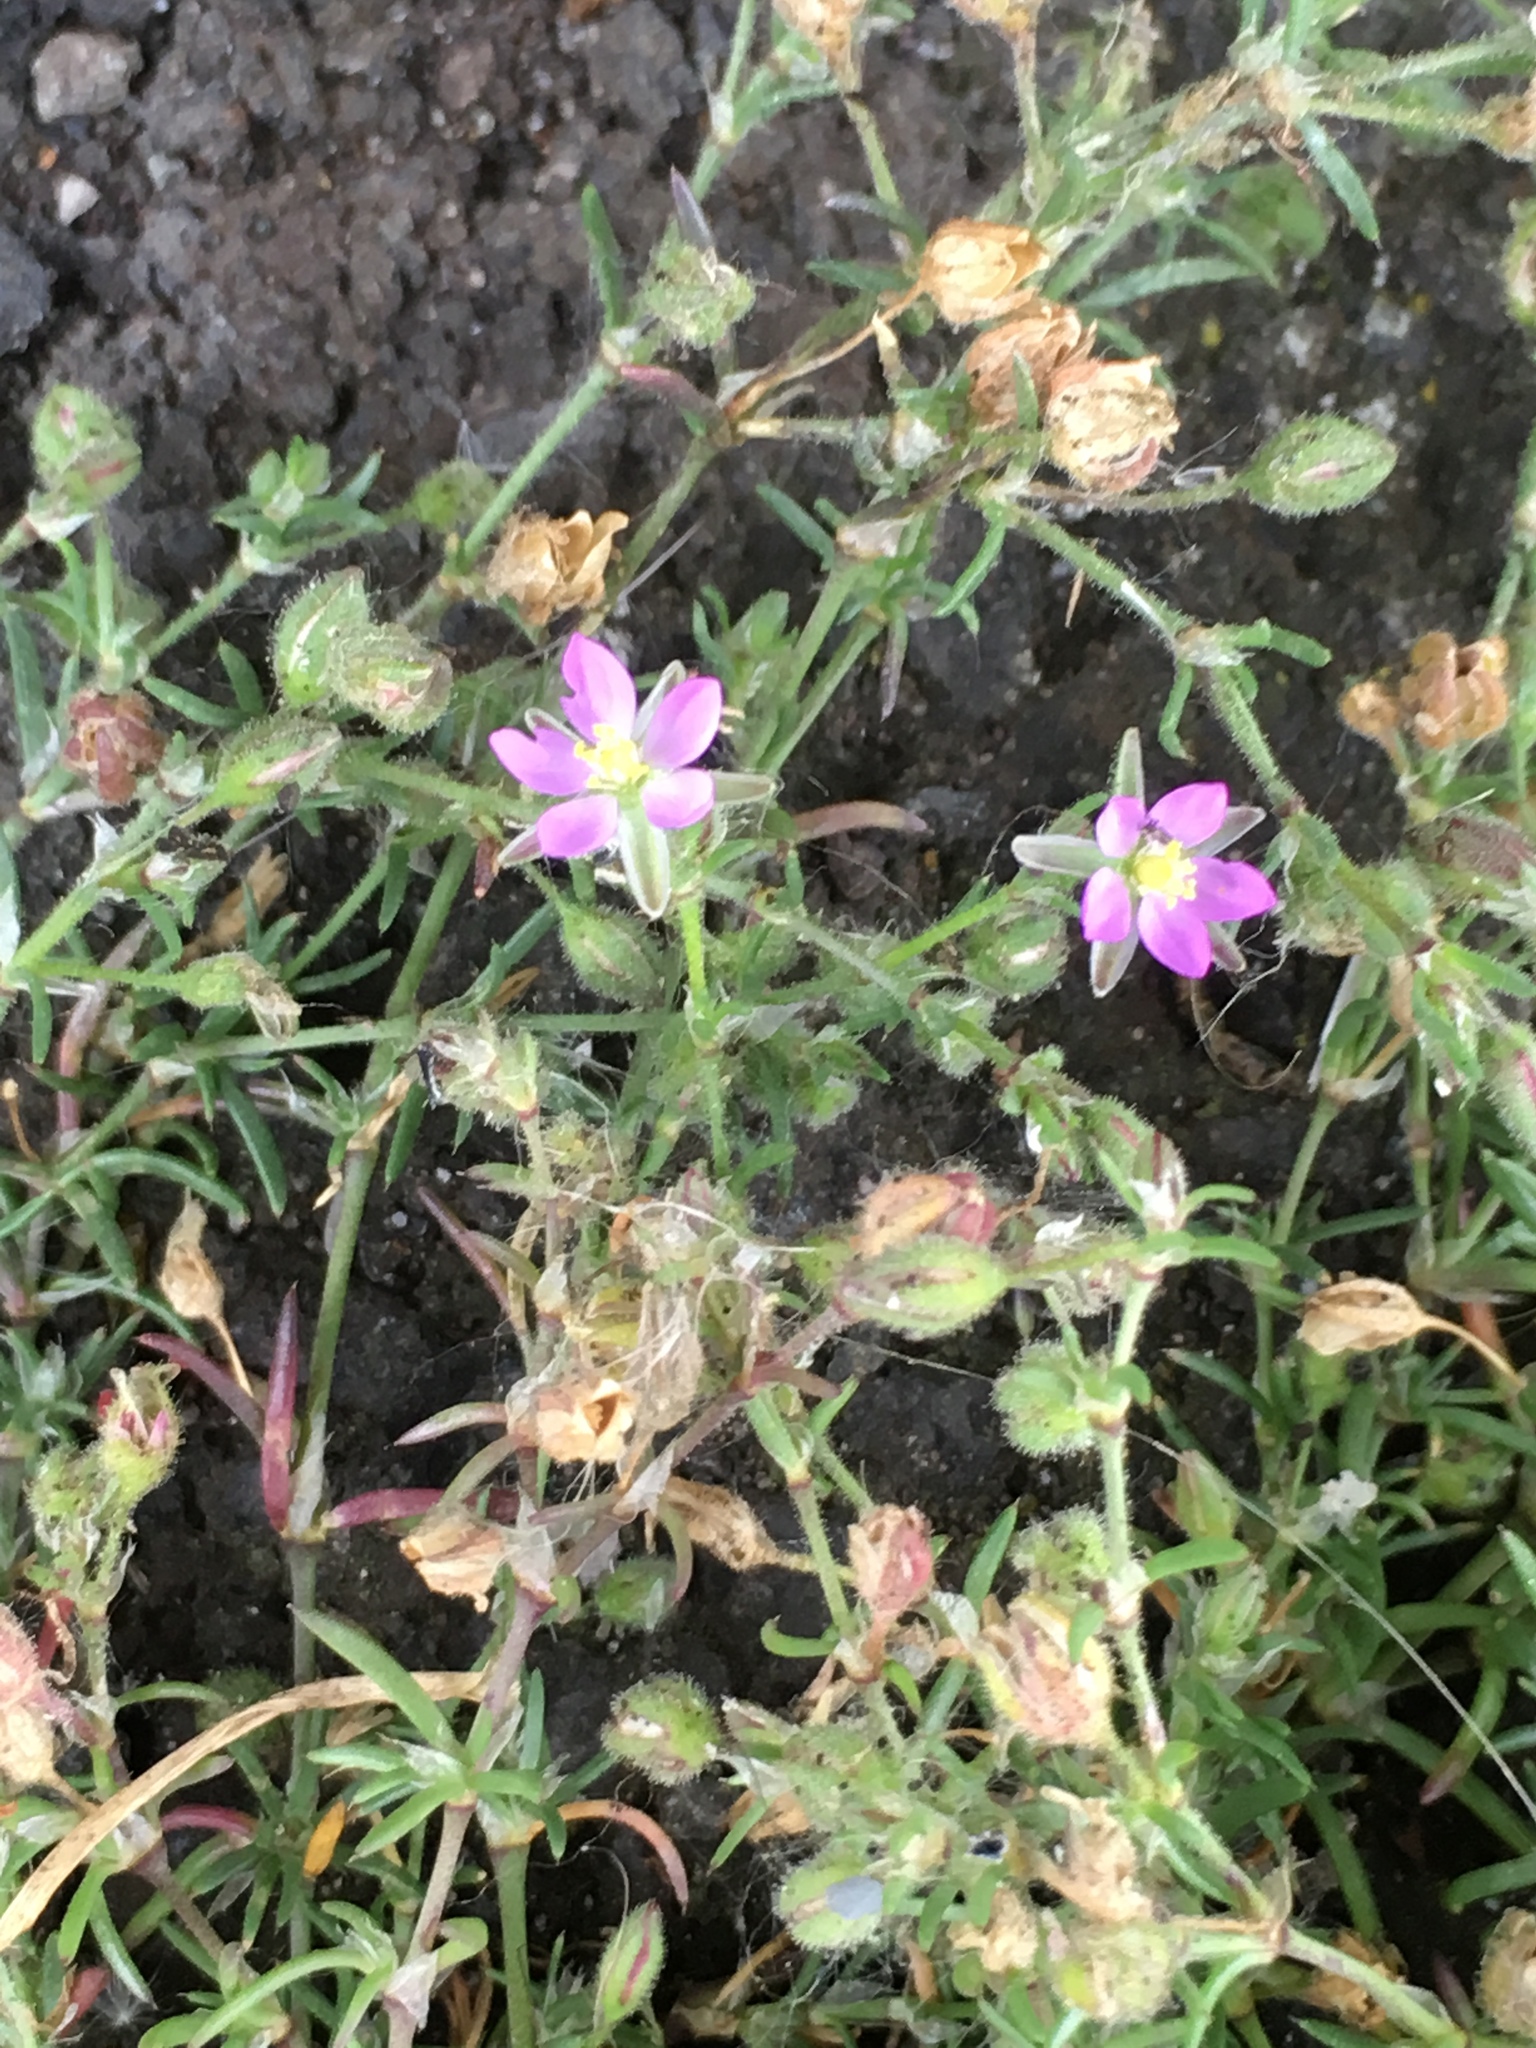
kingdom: Plantae
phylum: Tracheophyta
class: Magnoliopsida
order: Caryophyllales
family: Caryophyllaceae
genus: Spergularia
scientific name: Spergularia rubra
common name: Red sand-spurrey
